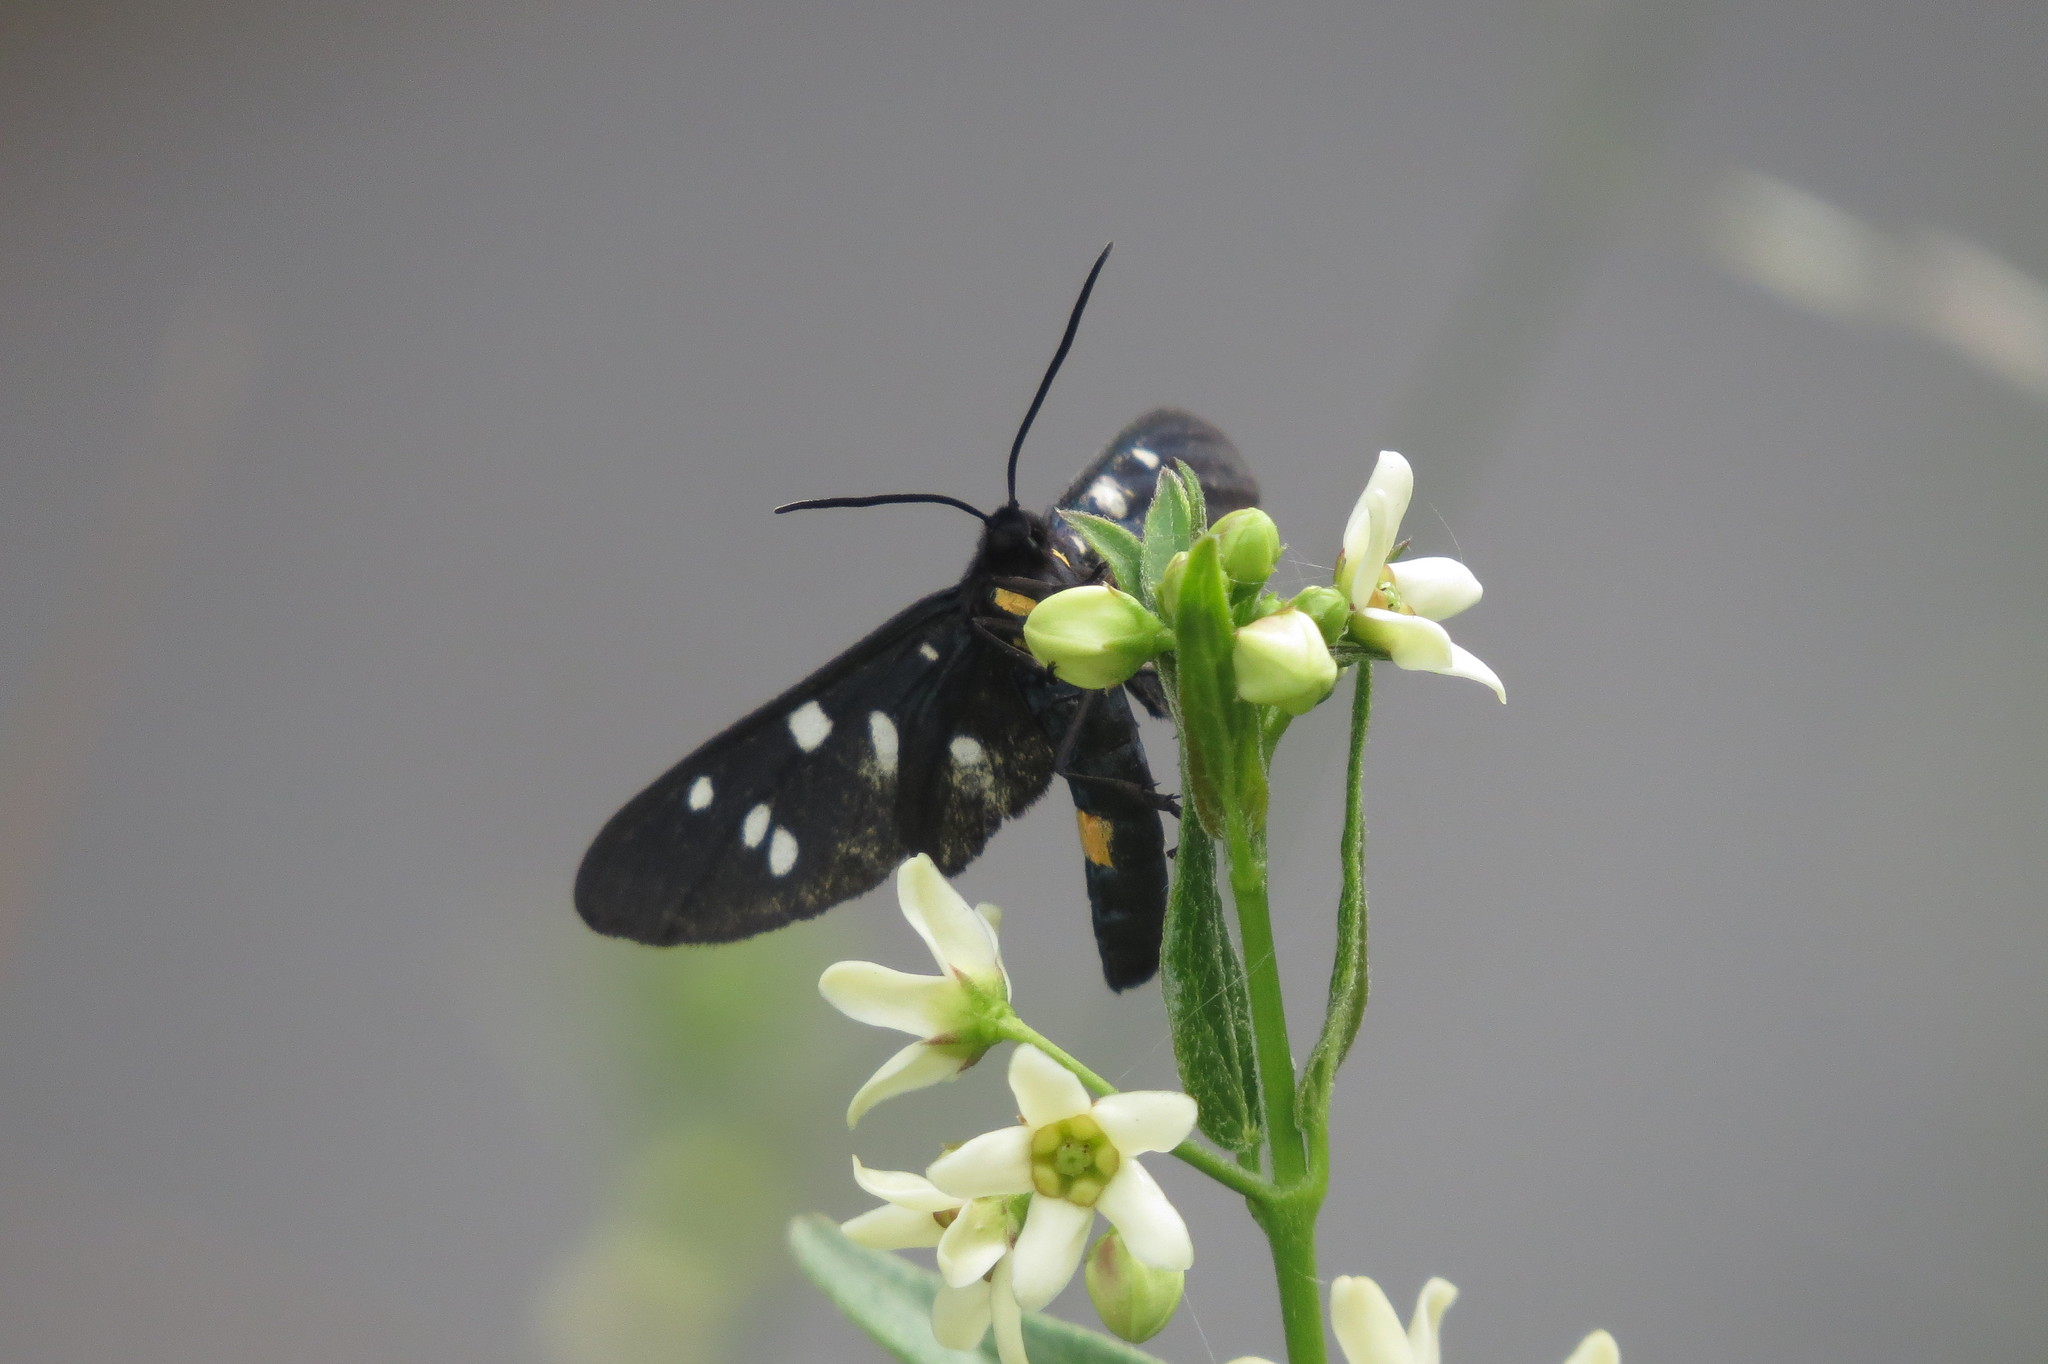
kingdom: Animalia
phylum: Arthropoda
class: Insecta
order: Lepidoptera
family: Erebidae
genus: Amata
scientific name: Amata phegea
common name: Nine-spotted
